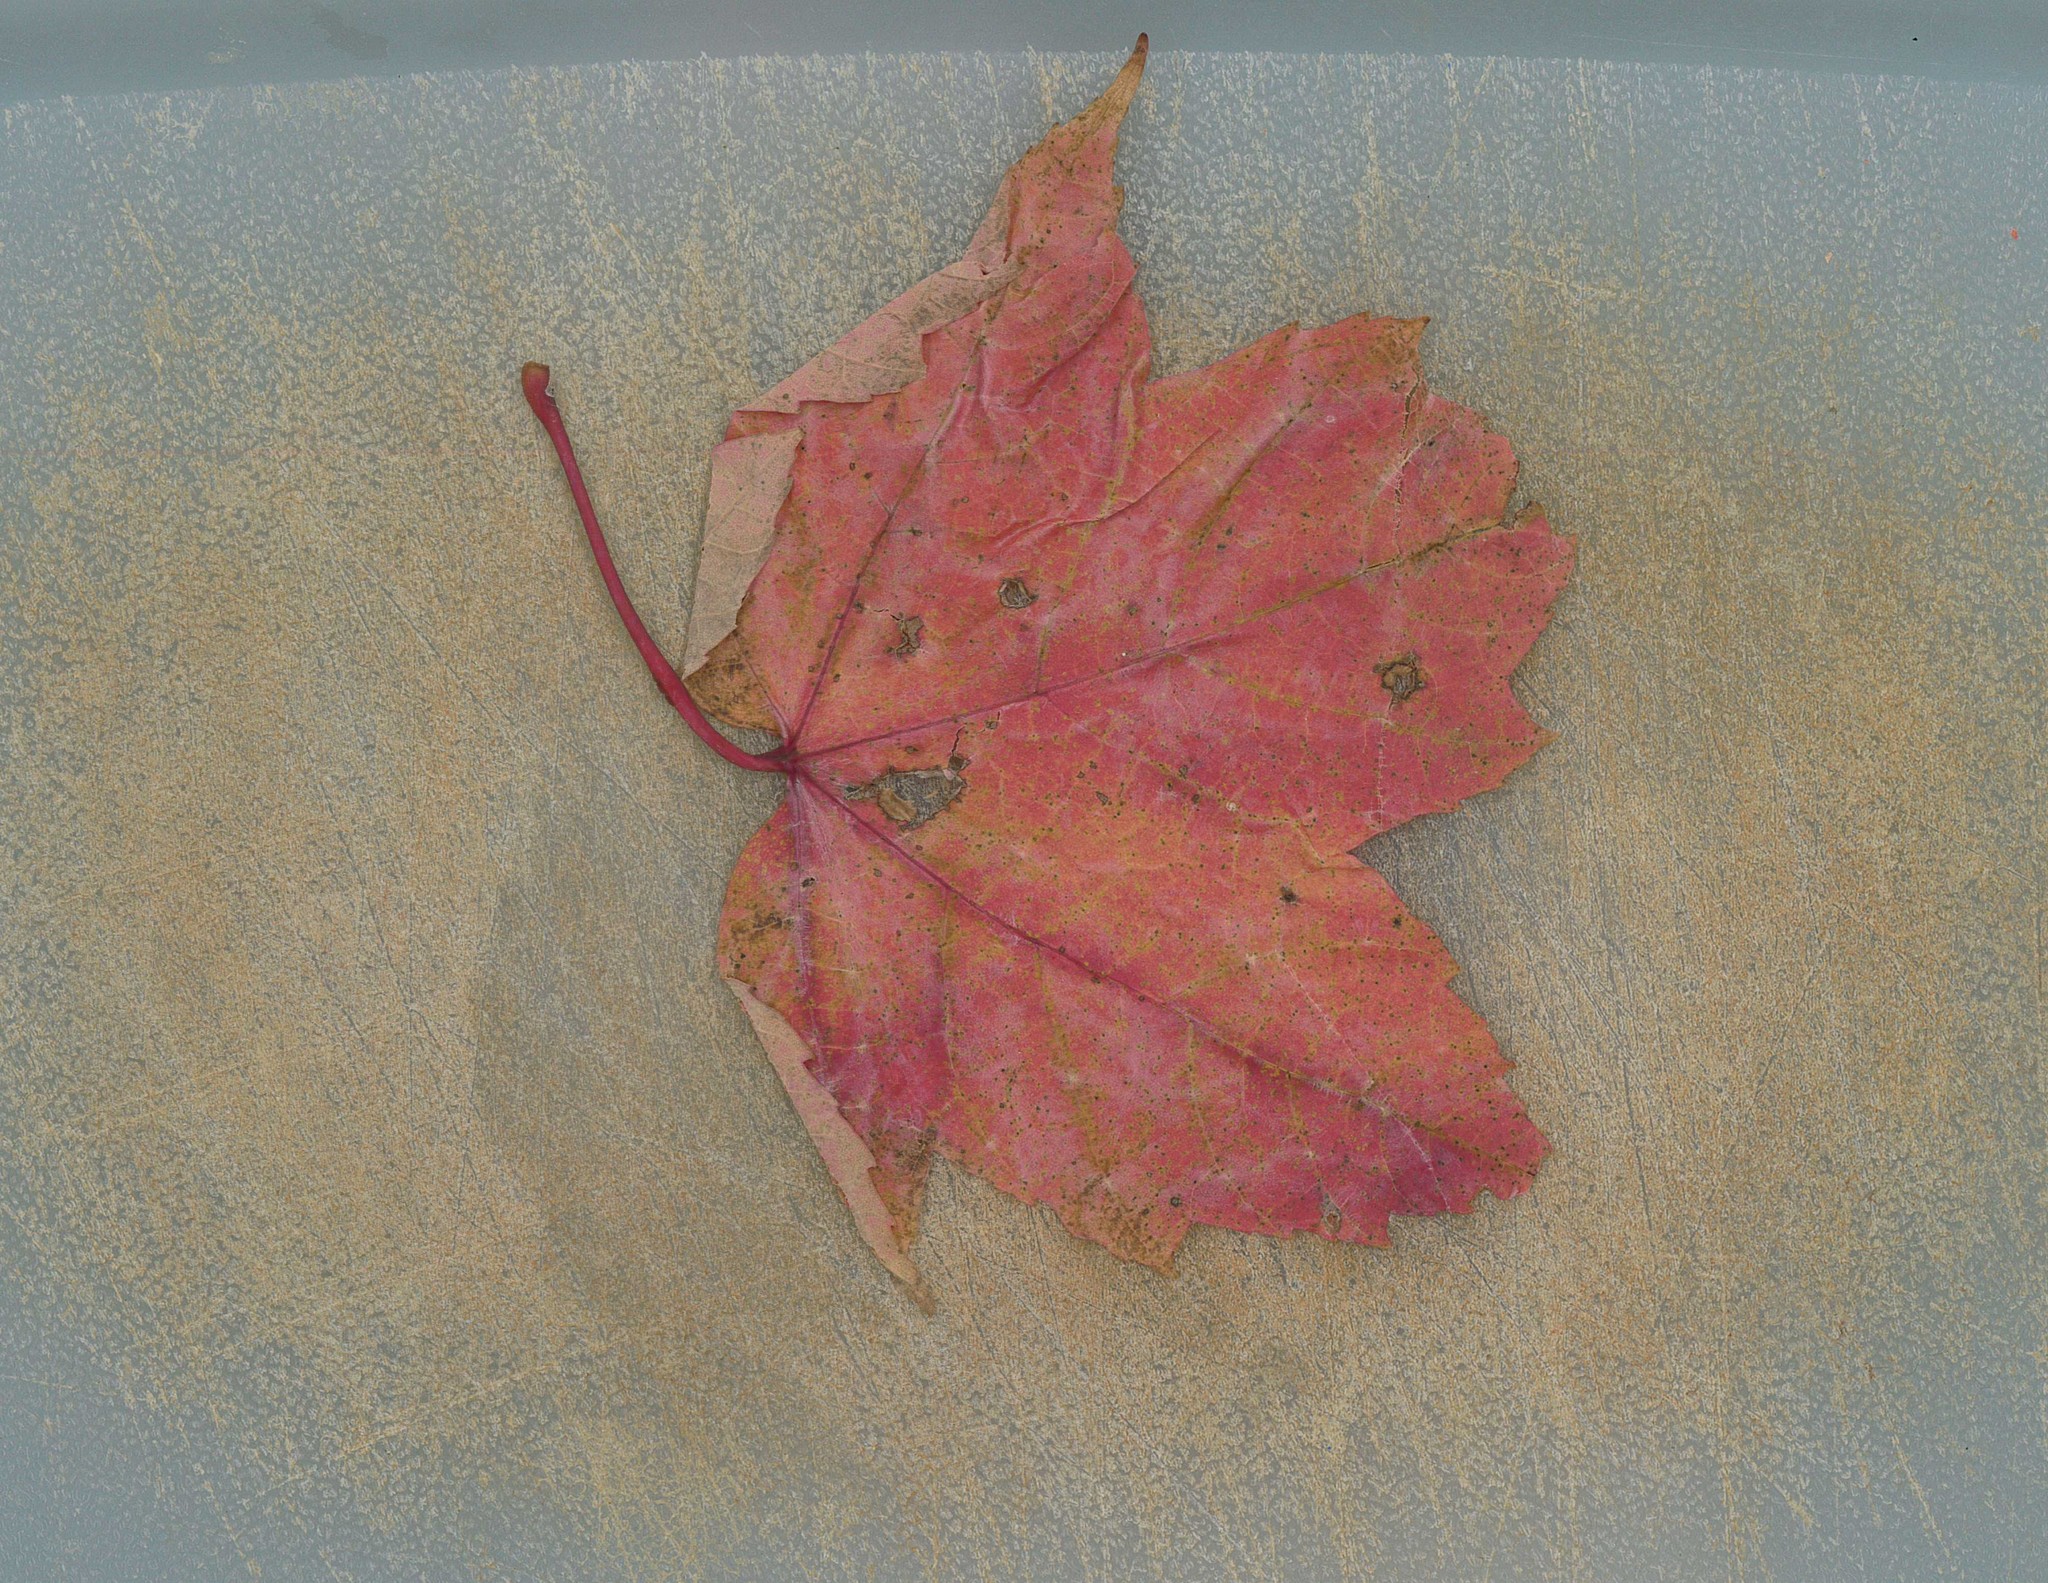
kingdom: Plantae
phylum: Tracheophyta
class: Magnoliopsida
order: Sapindales
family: Sapindaceae
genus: Acer
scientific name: Acer rubrum
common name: Red maple
